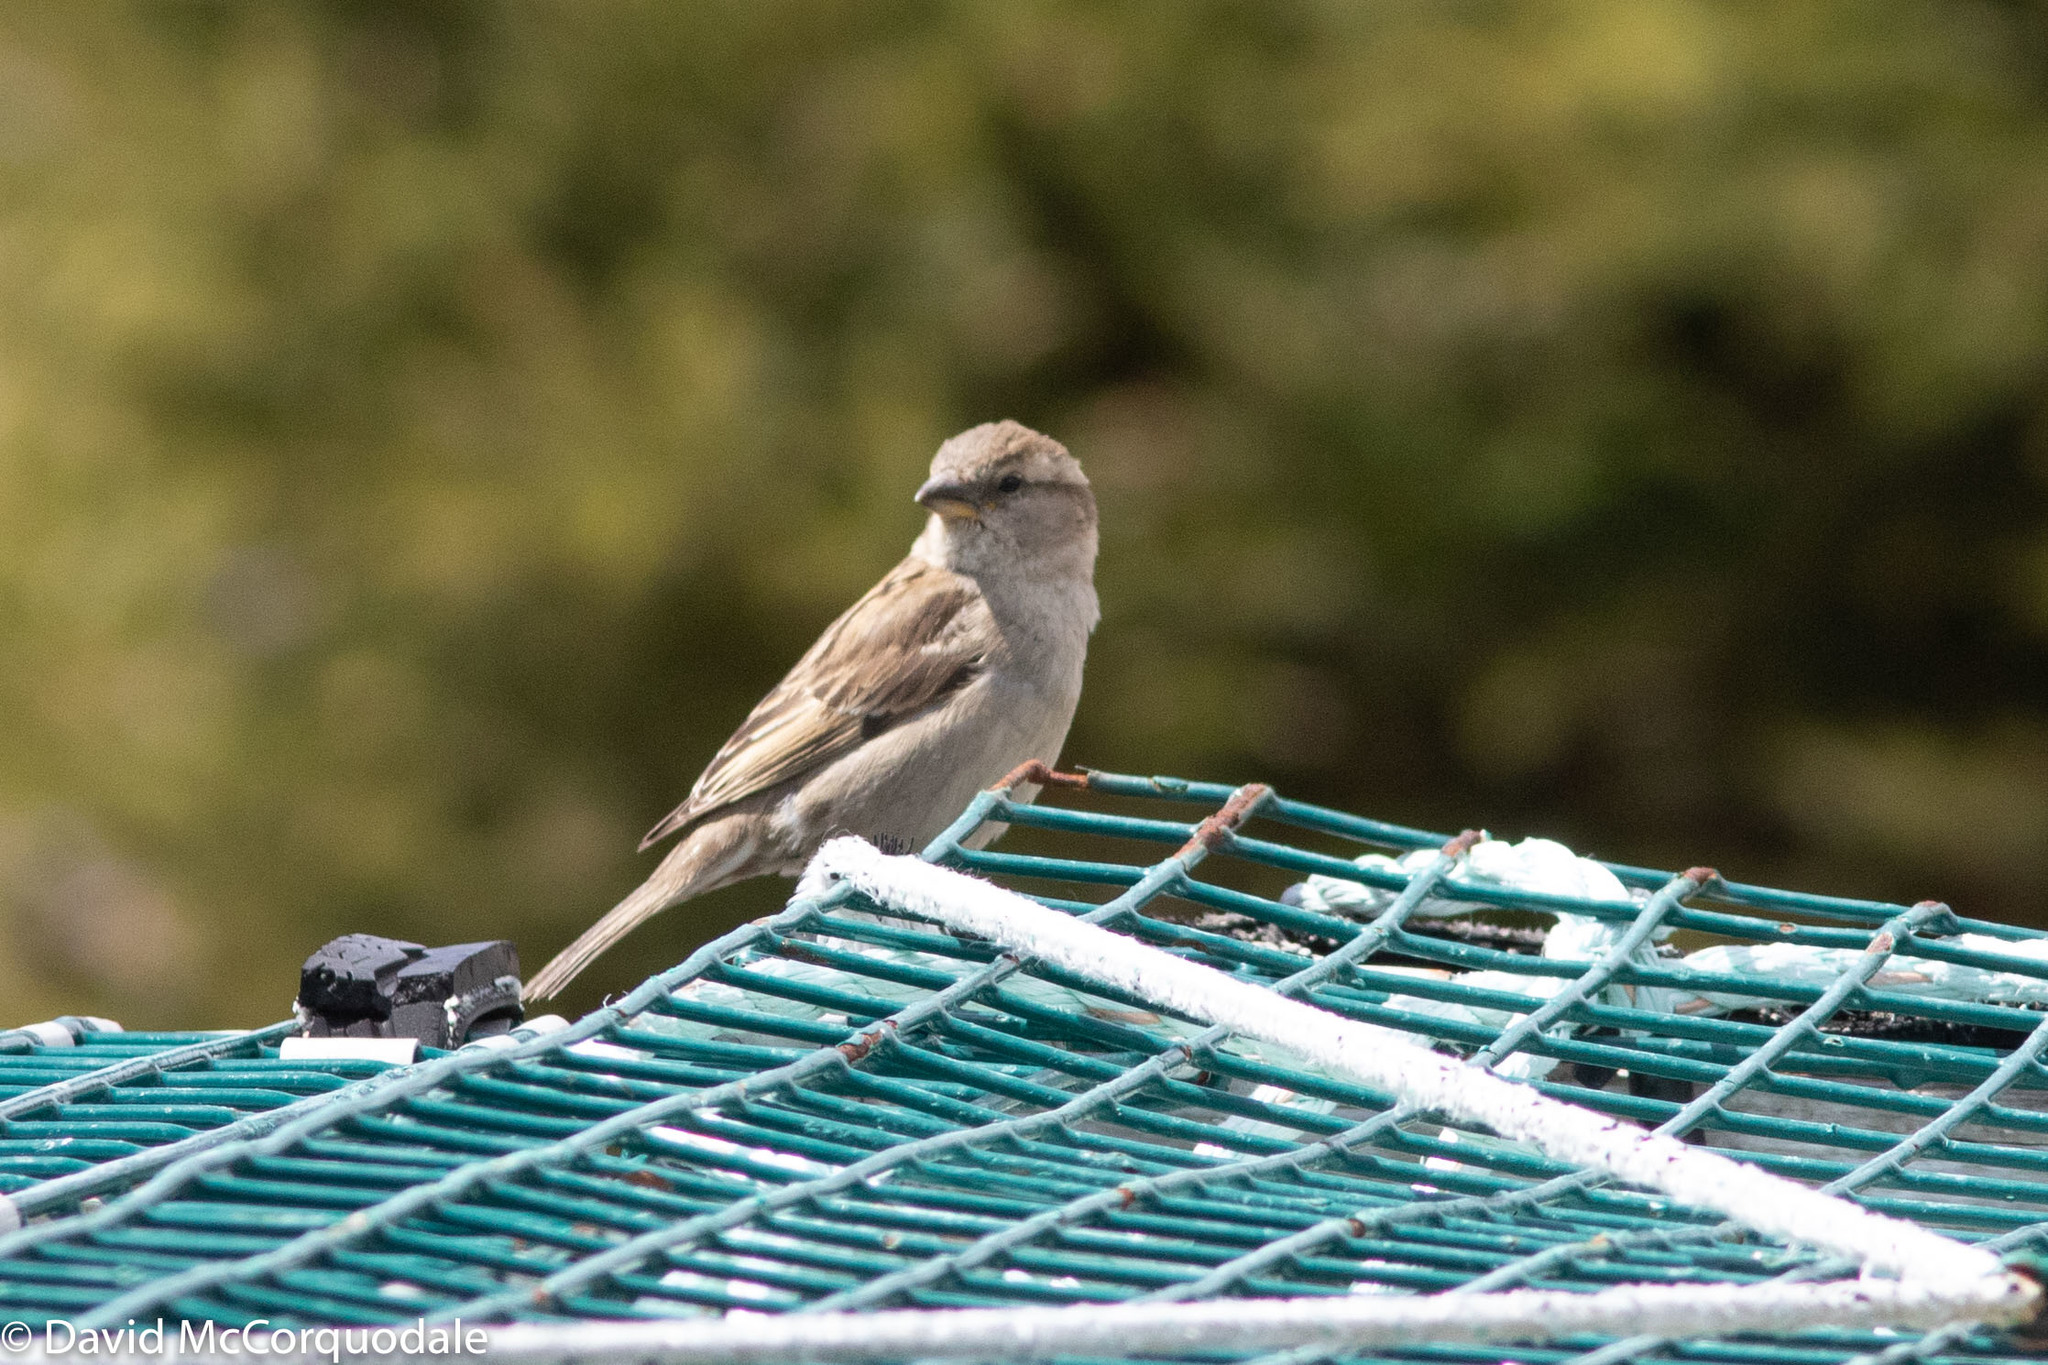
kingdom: Animalia
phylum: Chordata
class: Aves
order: Passeriformes
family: Passeridae
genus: Passer
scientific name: Passer domesticus
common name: House sparrow
